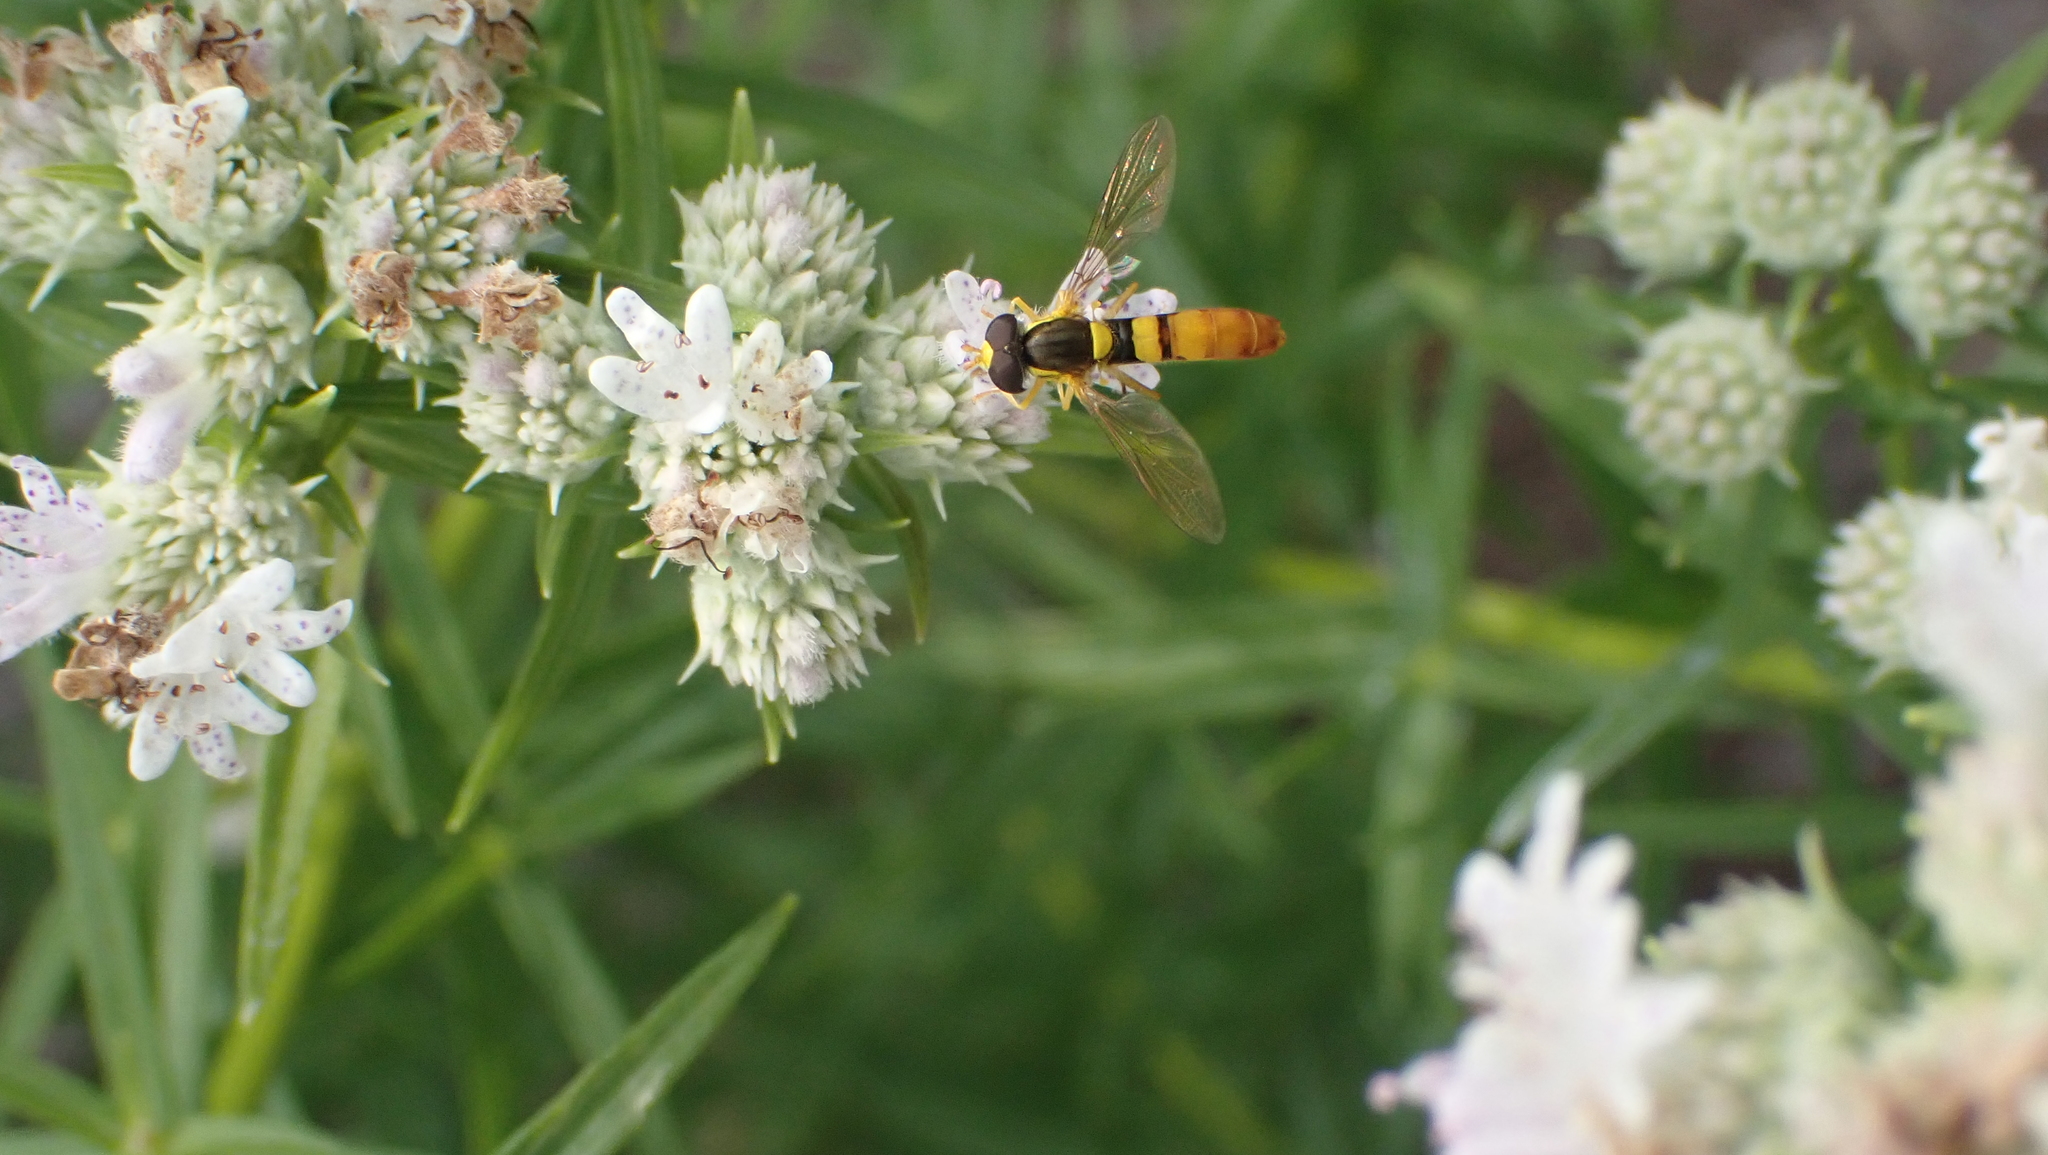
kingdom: Animalia
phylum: Arthropoda
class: Insecta
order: Diptera
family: Syrphidae
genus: Sphaerophoria
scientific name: Sphaerophoria contigua
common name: Tufted globetail
